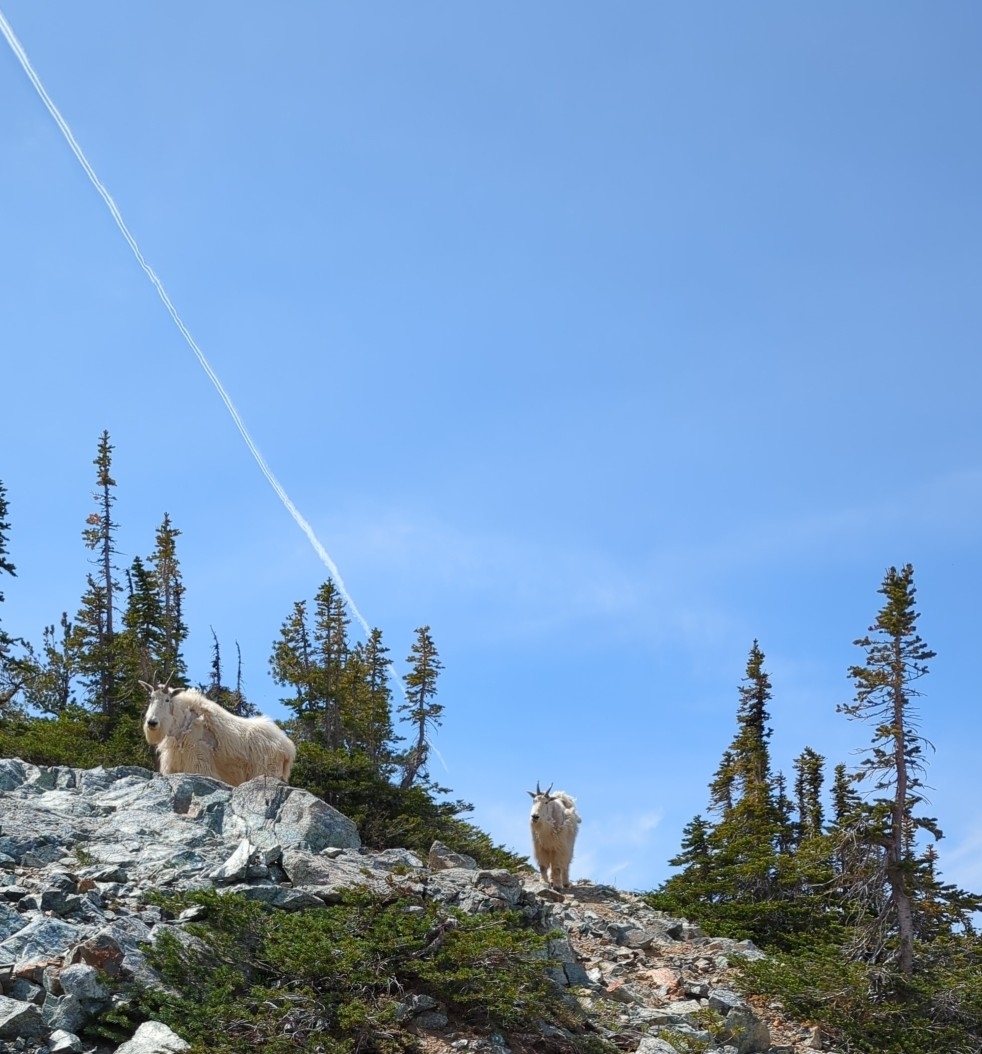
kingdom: Animalia
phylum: Chordata
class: Mammalia
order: Artiodactyla
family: Bovidae
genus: Oreamnos
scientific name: Oreamnos americanus
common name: Mountain goat
